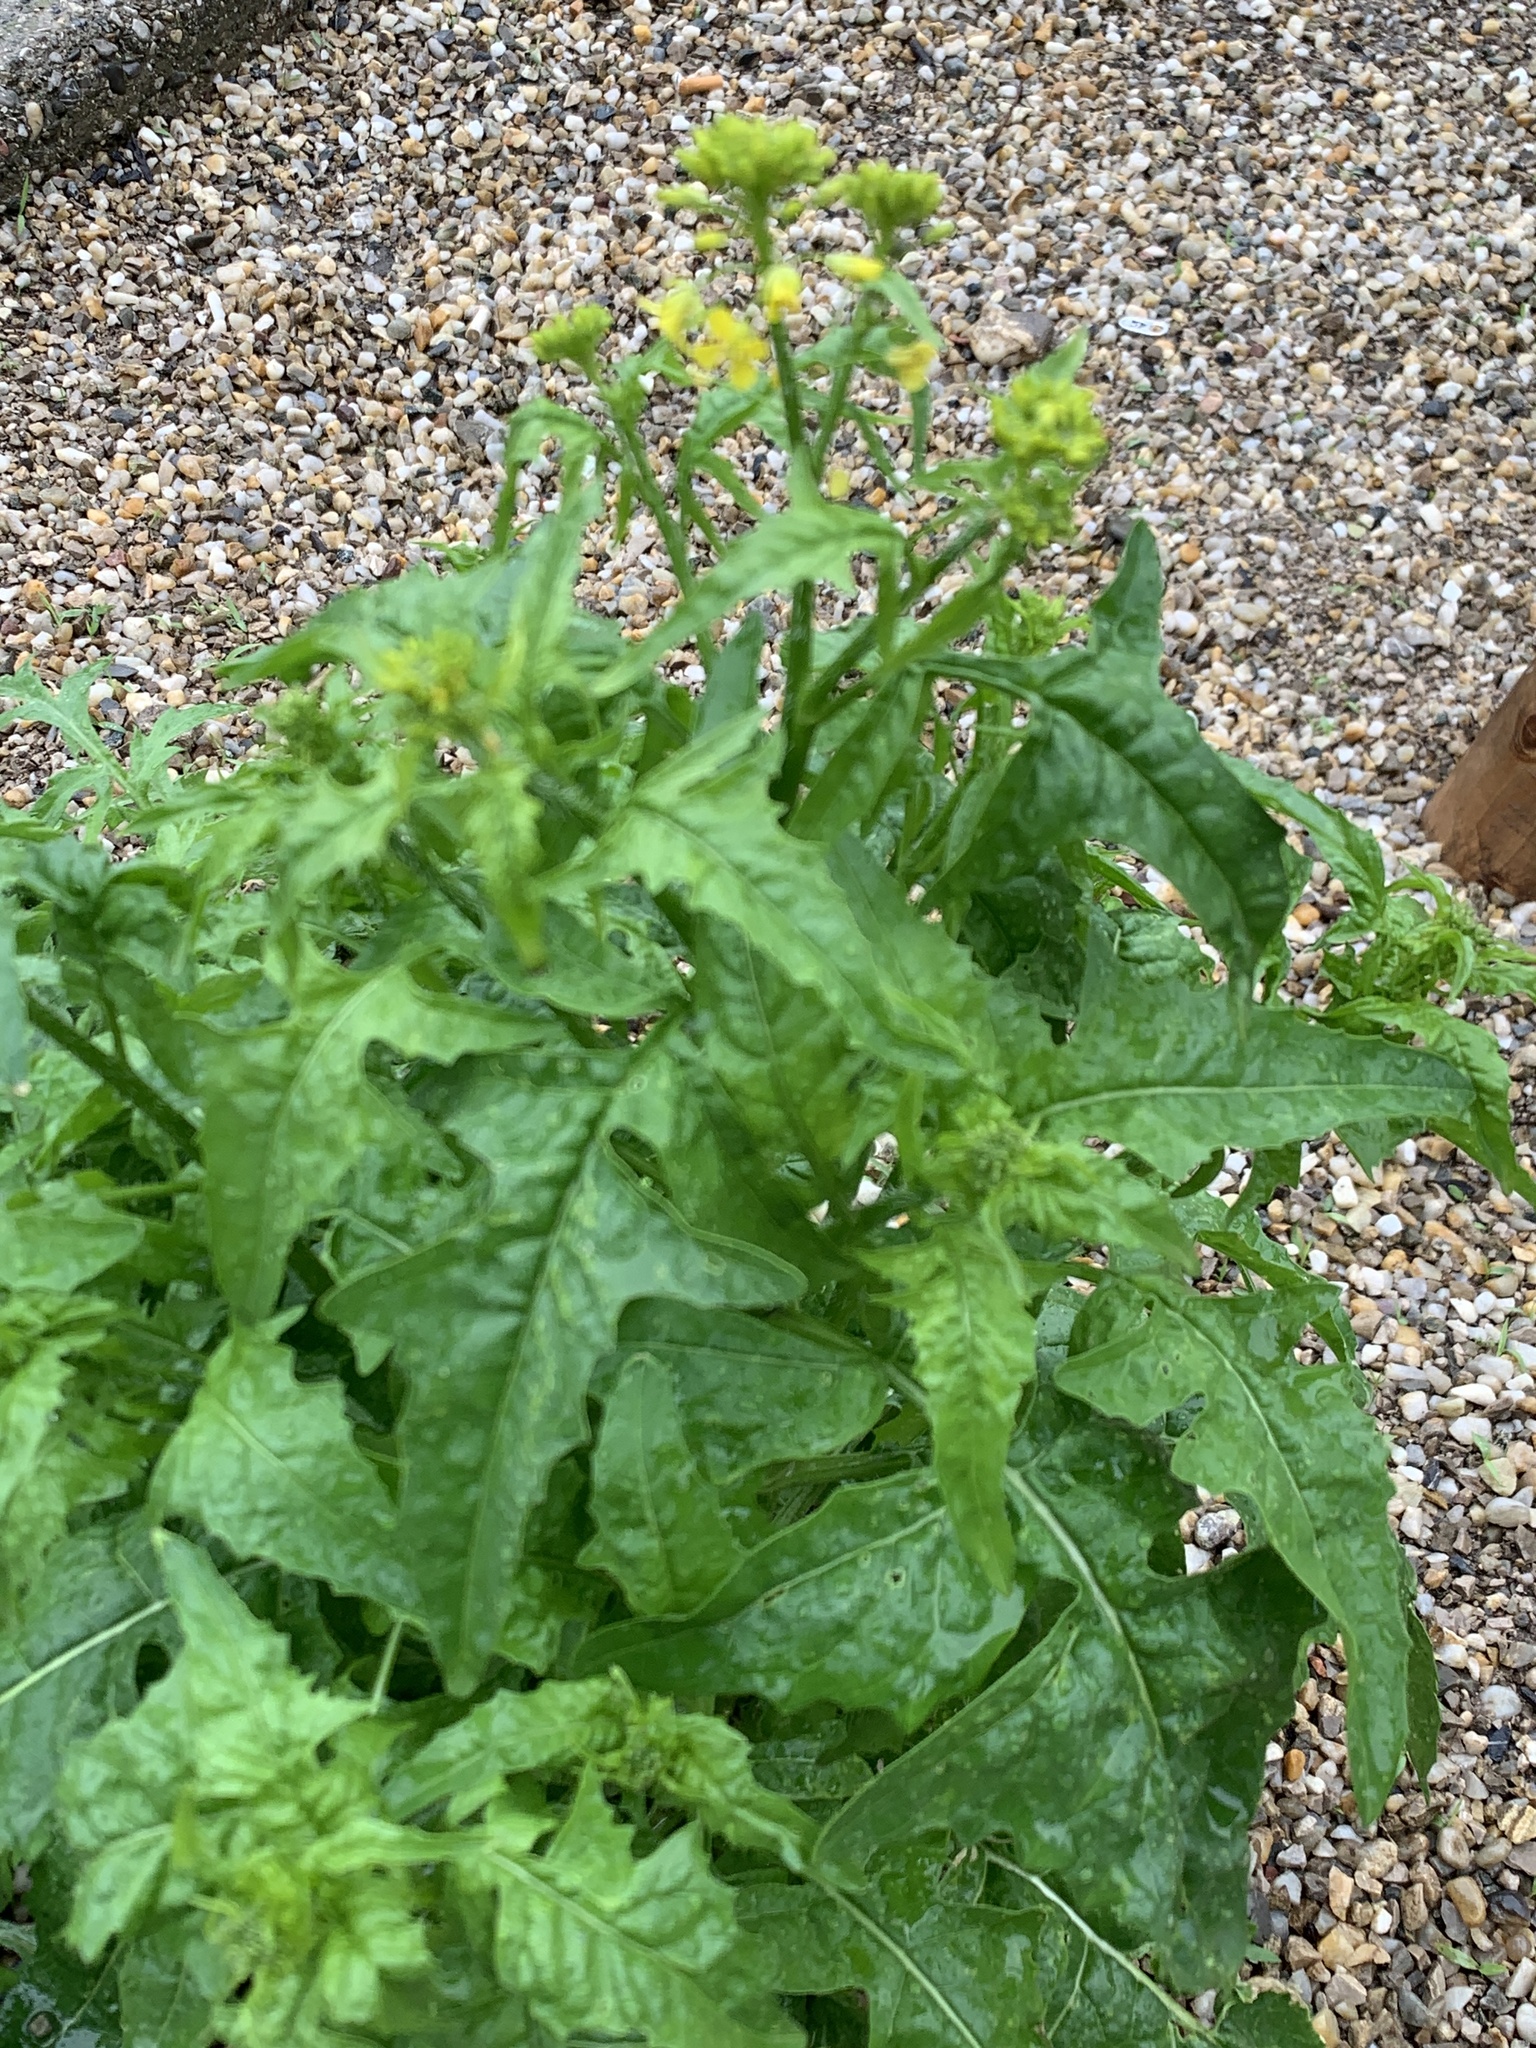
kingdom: Plantae
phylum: Tracheophyta
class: Magnoliopsida
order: Brassicales
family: Brassicaceae
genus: Sisymbrium
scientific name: Sisymbrium loeselii
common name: False london-rocket
